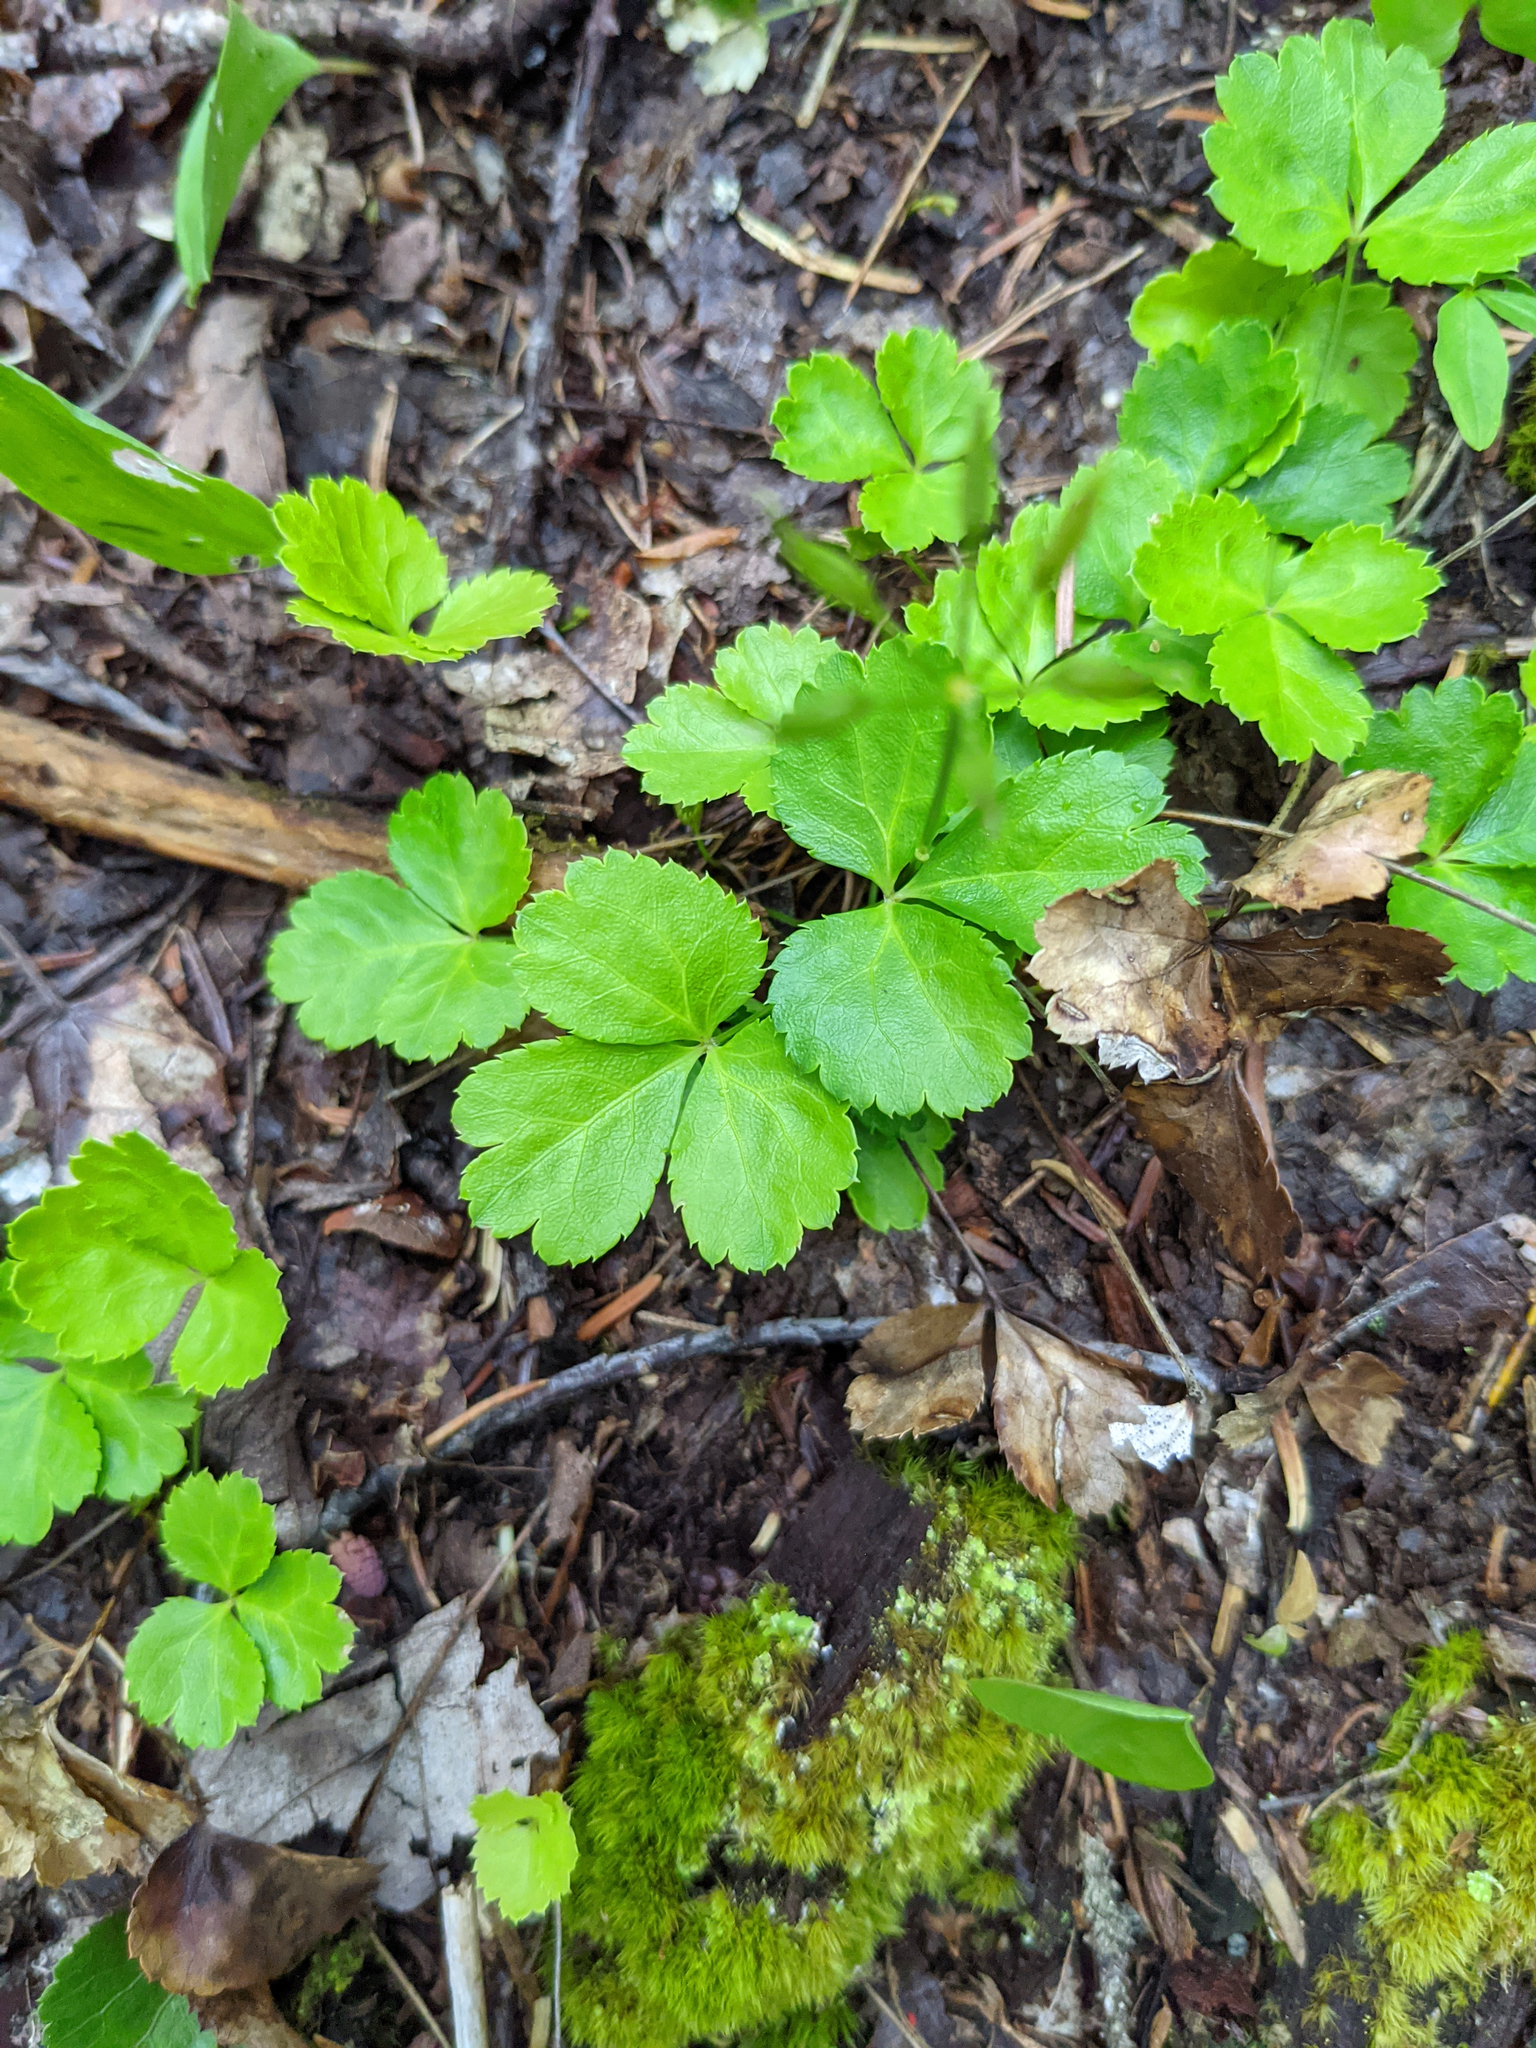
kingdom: Plantae
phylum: Tracheophyta
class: Magnoliopsida
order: Ranunculales
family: Ranunculaceae
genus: Coptis
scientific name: Coptis trifolia
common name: Canker-root
